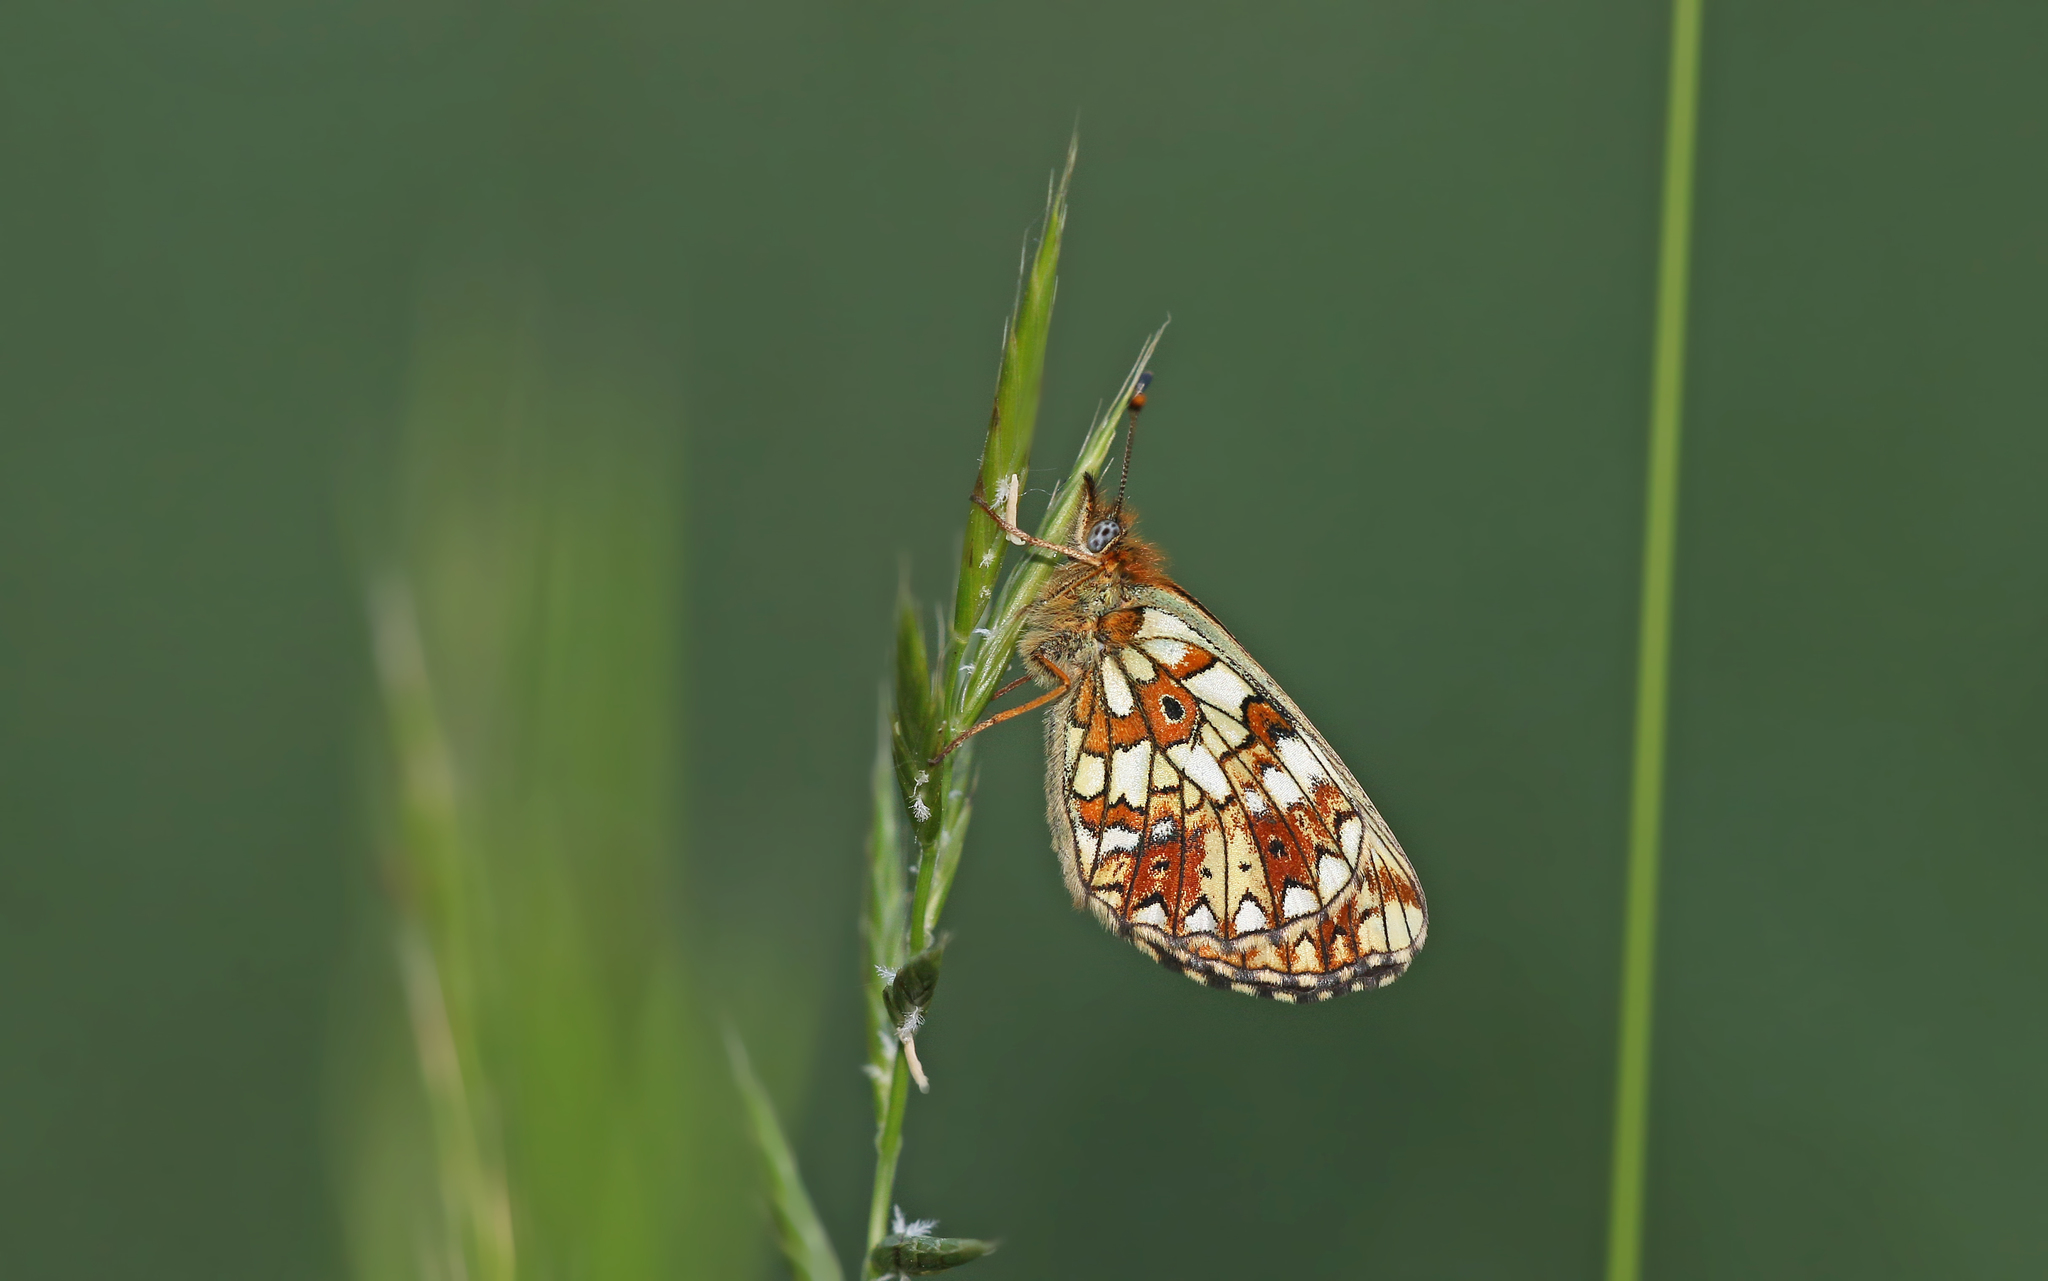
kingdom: Animalia
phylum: Arthropoda
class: Insecta
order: Lepidoptera
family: Nymphalidae
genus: Boloria
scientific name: Boloria selene
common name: Small pearl-bordered fritillary
